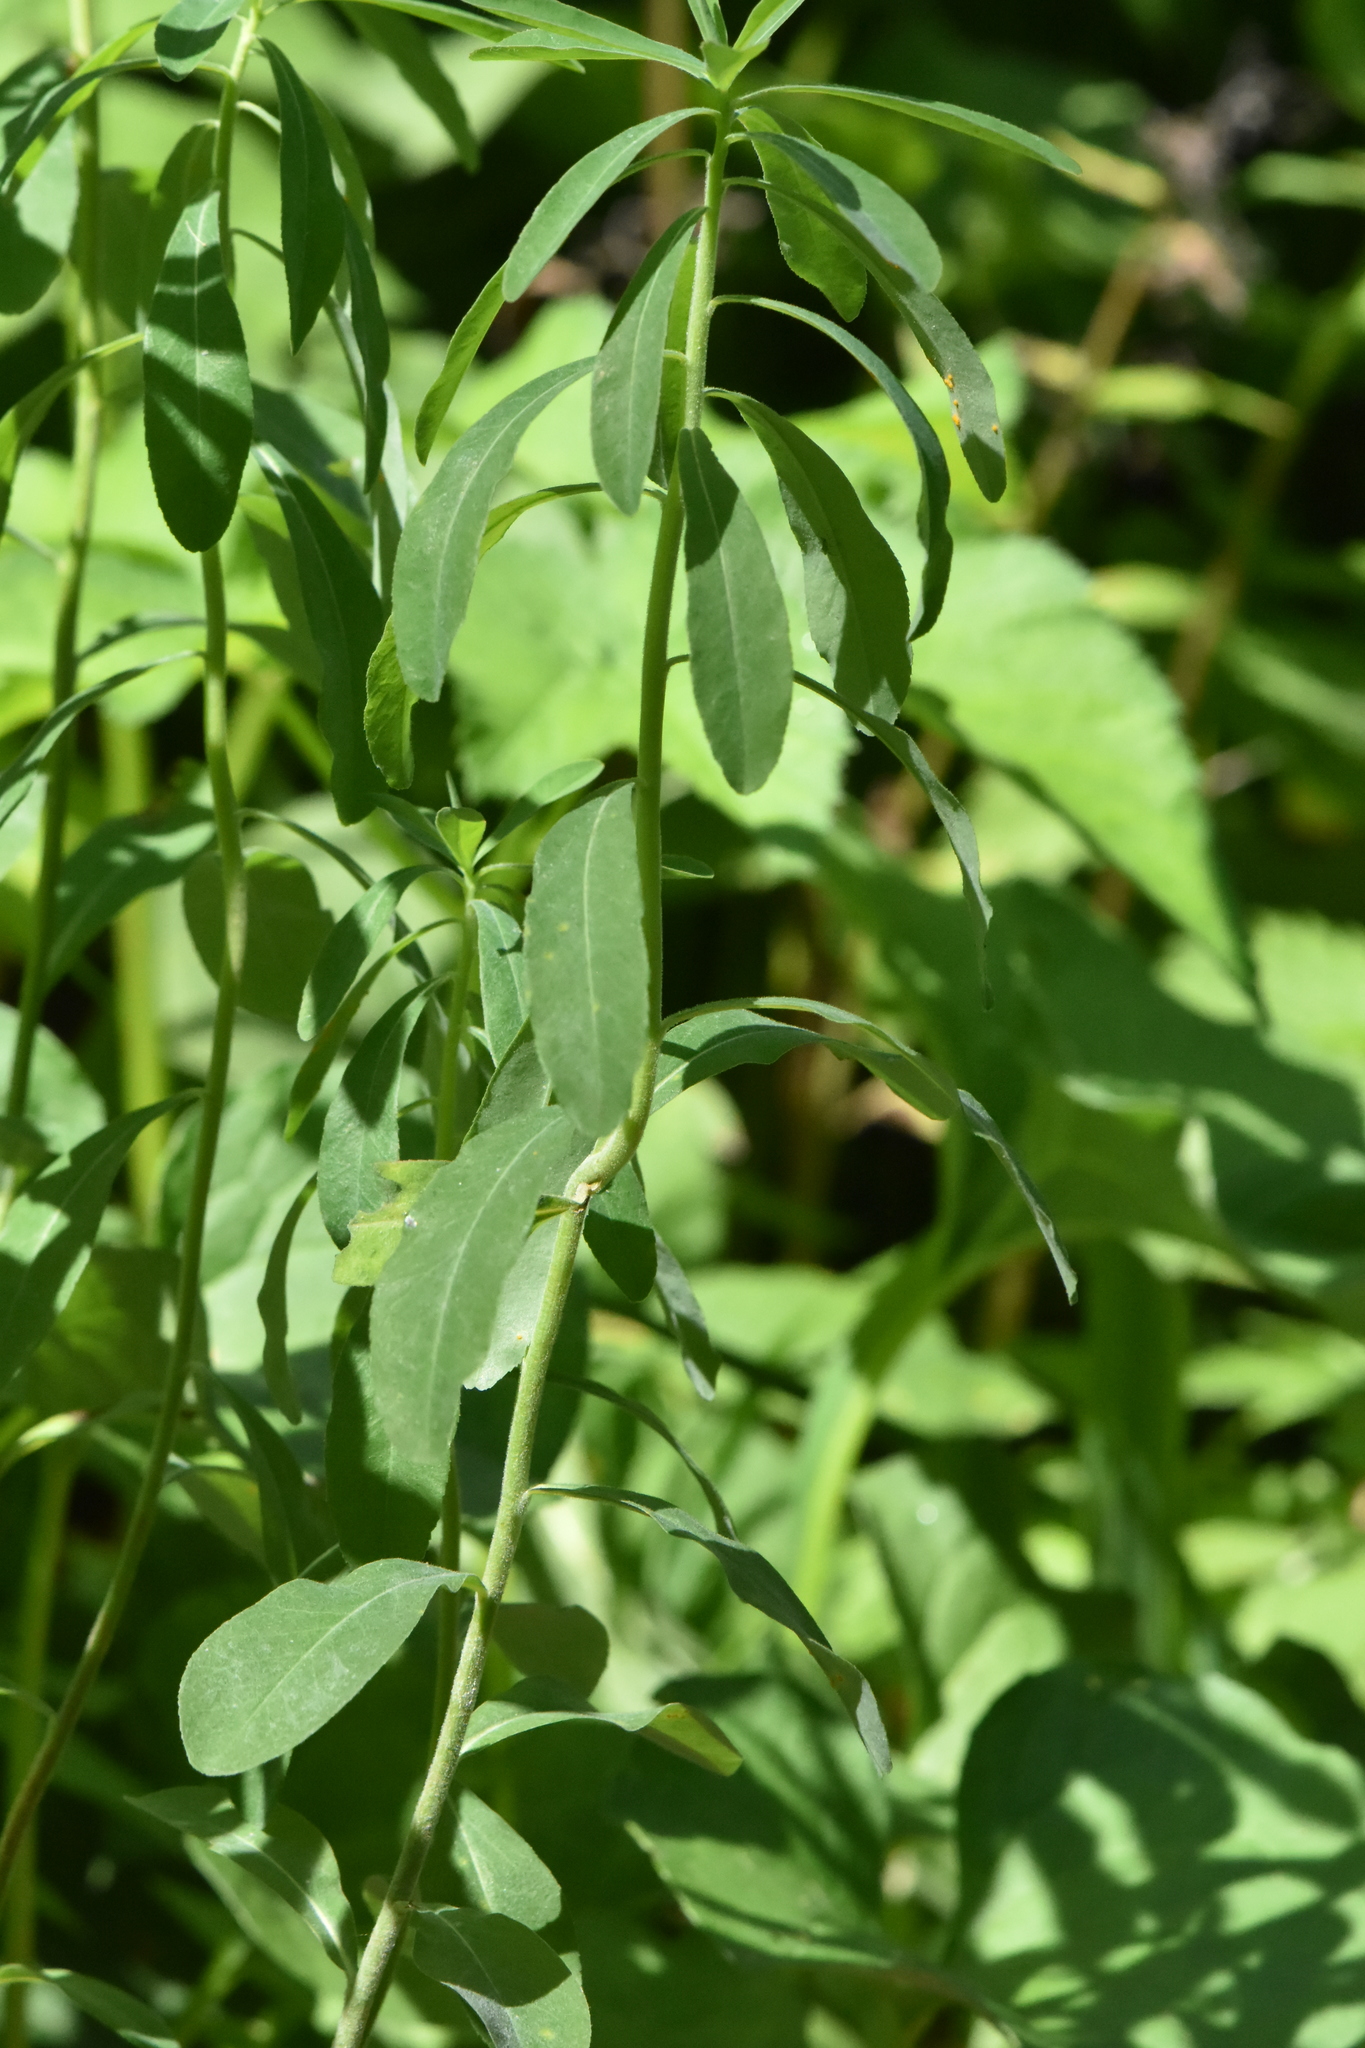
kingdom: Plantae
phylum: Tracheophyta
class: Magnoliopsida
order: Malpighiales
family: Euphorbiaceae
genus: Euphorbia
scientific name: Euphorbia pilosa
